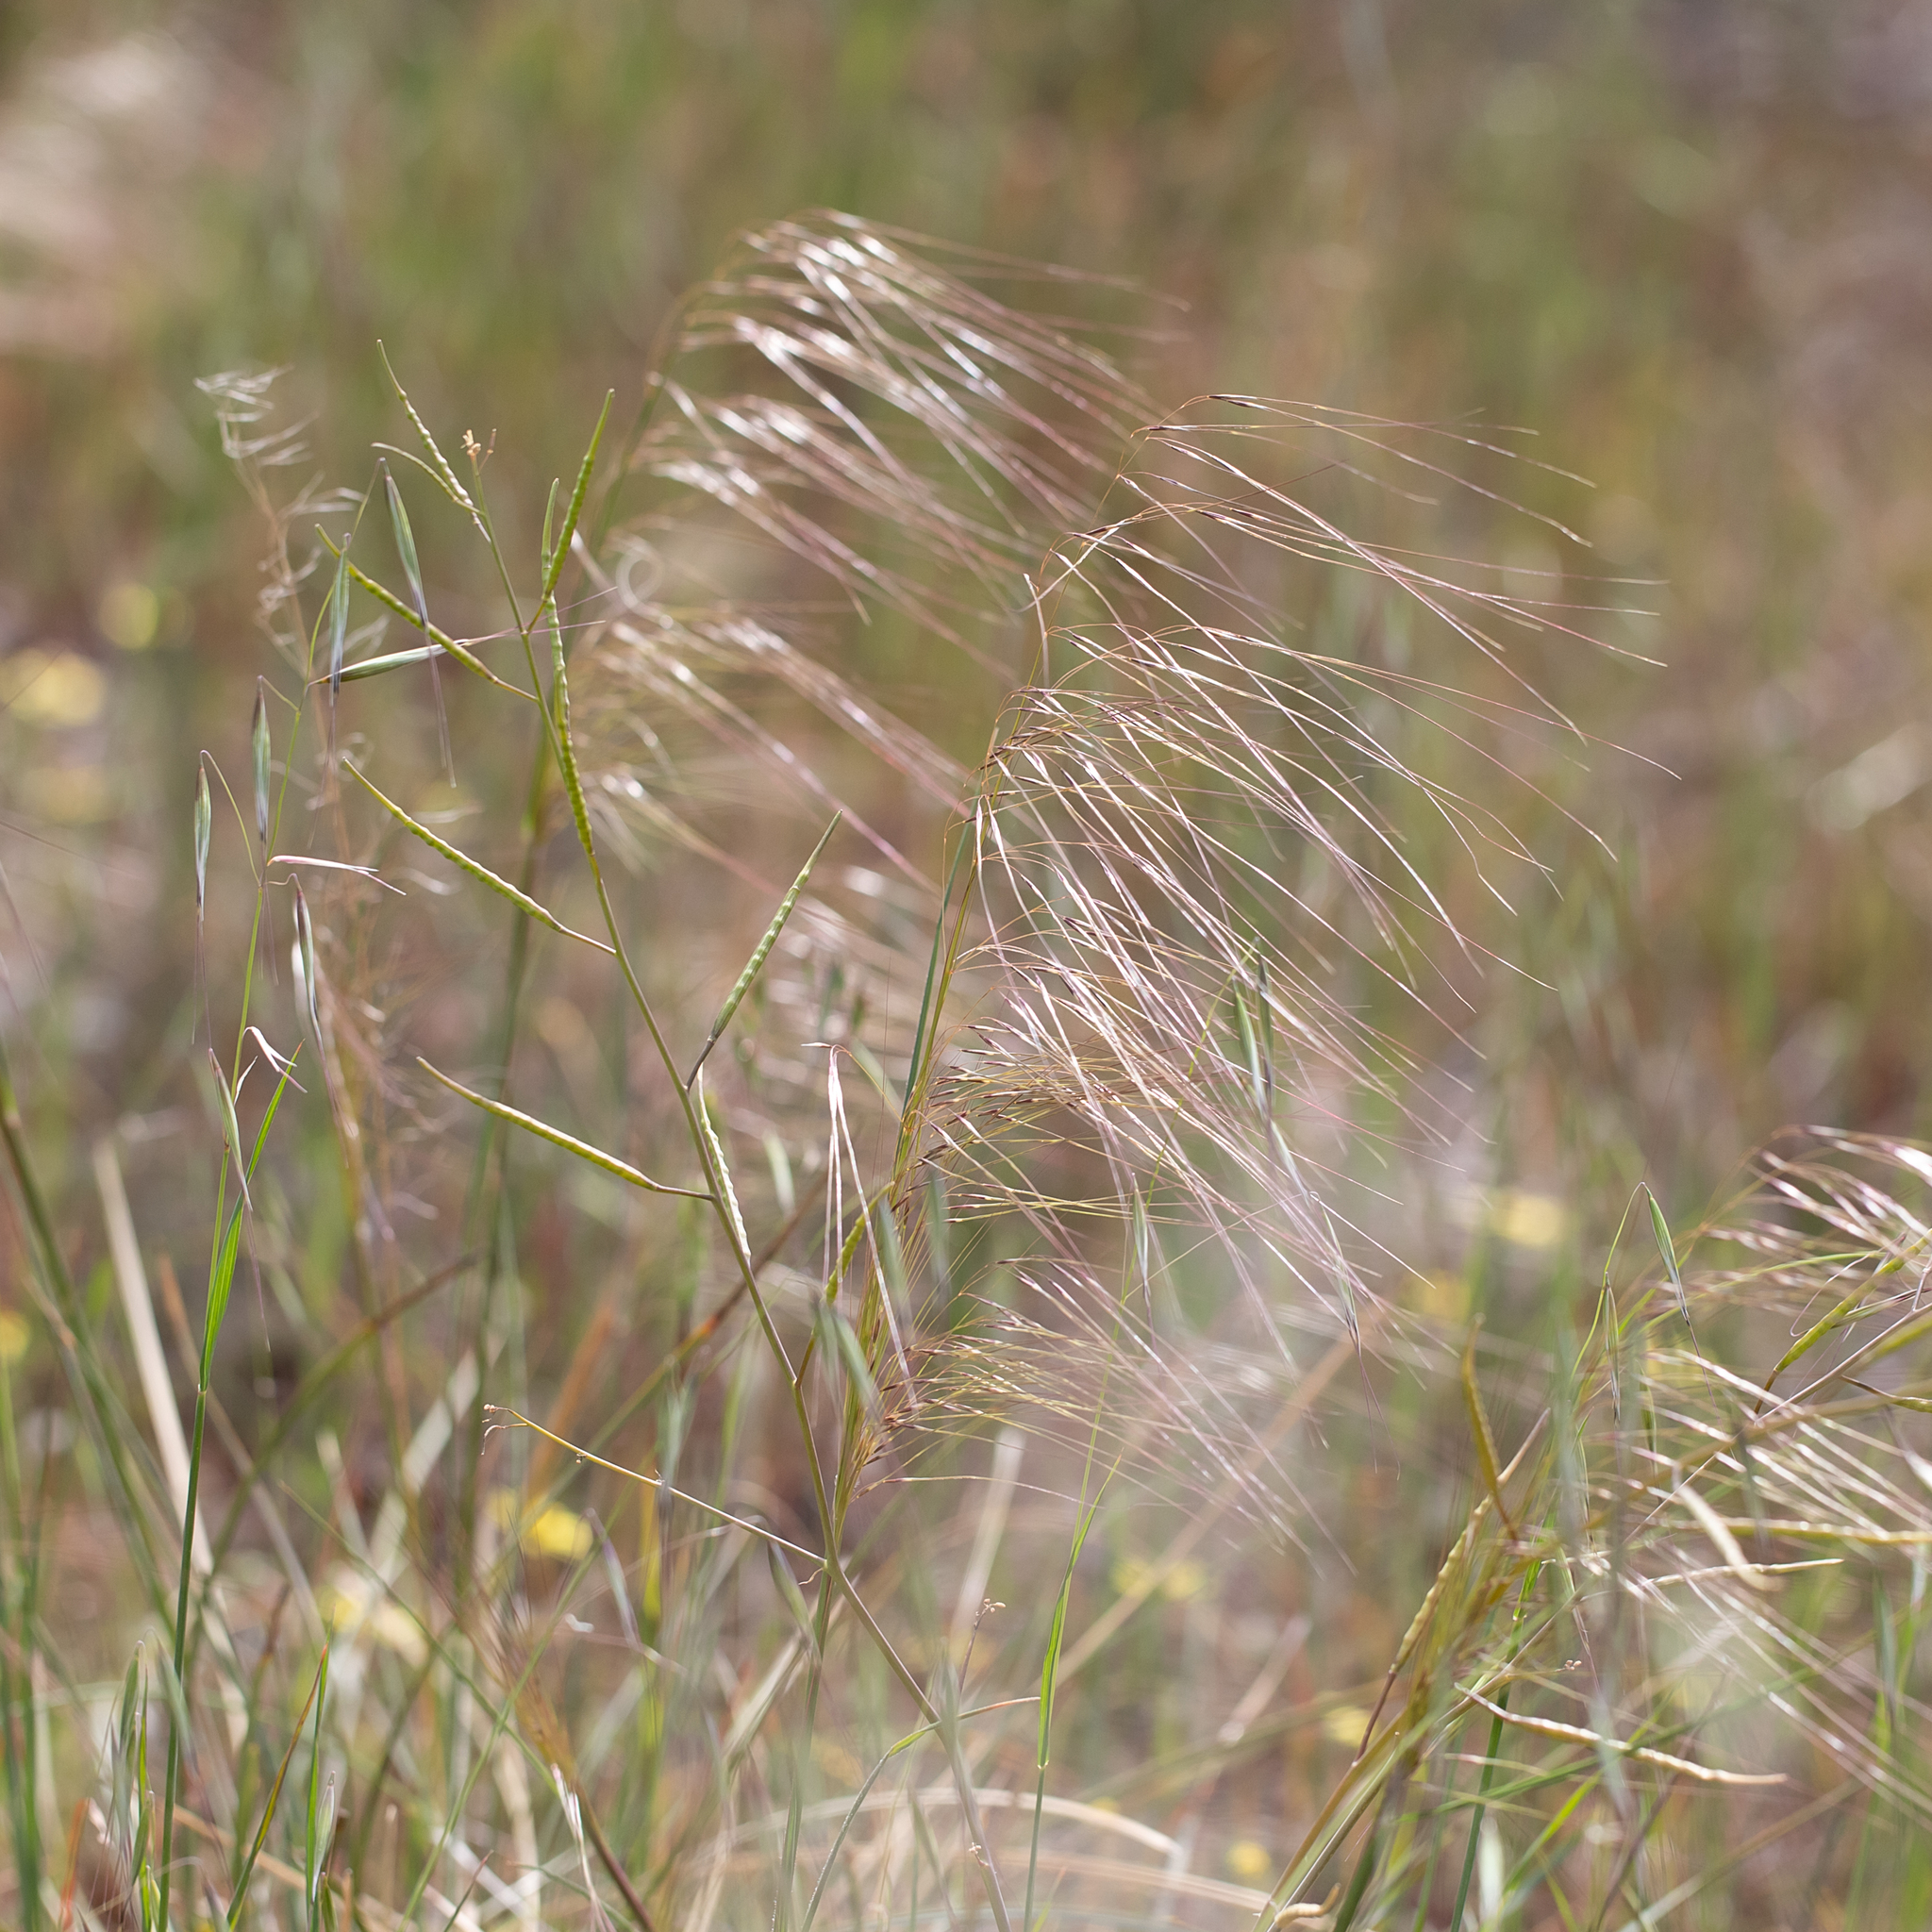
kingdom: Plantae
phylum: Tracheophyta
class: Liliopsida
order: Poales
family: Poaceae
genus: Austrostipa
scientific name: Austrostipa nodosa
